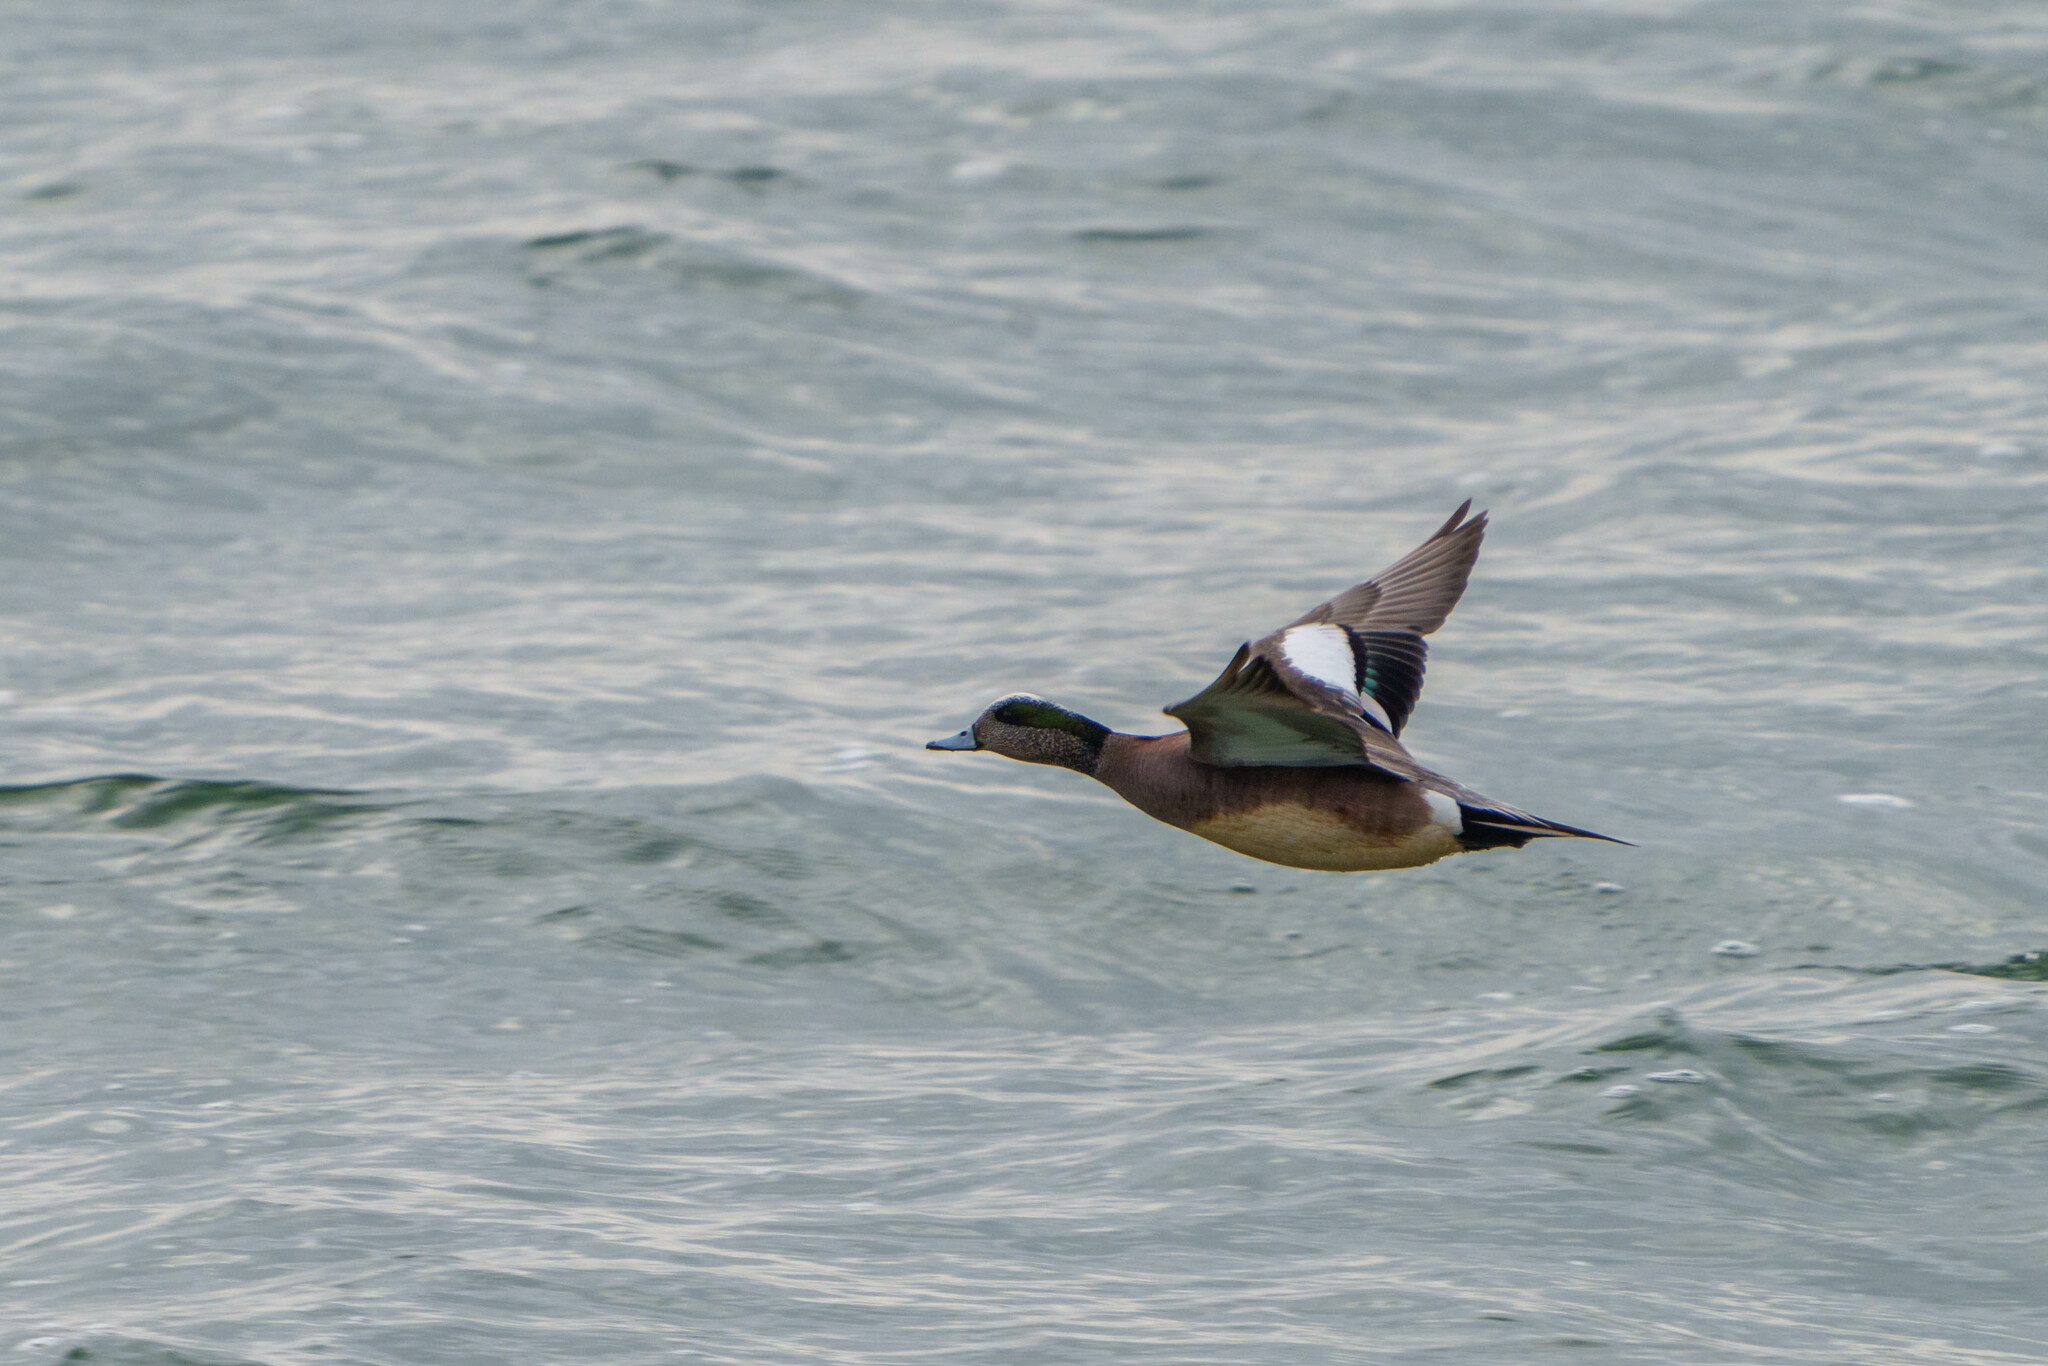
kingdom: Animalia
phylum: Chordata
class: Aves
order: Anseriformes
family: Anatidae
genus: Mareca
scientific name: Mareca americana
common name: American wigeon
